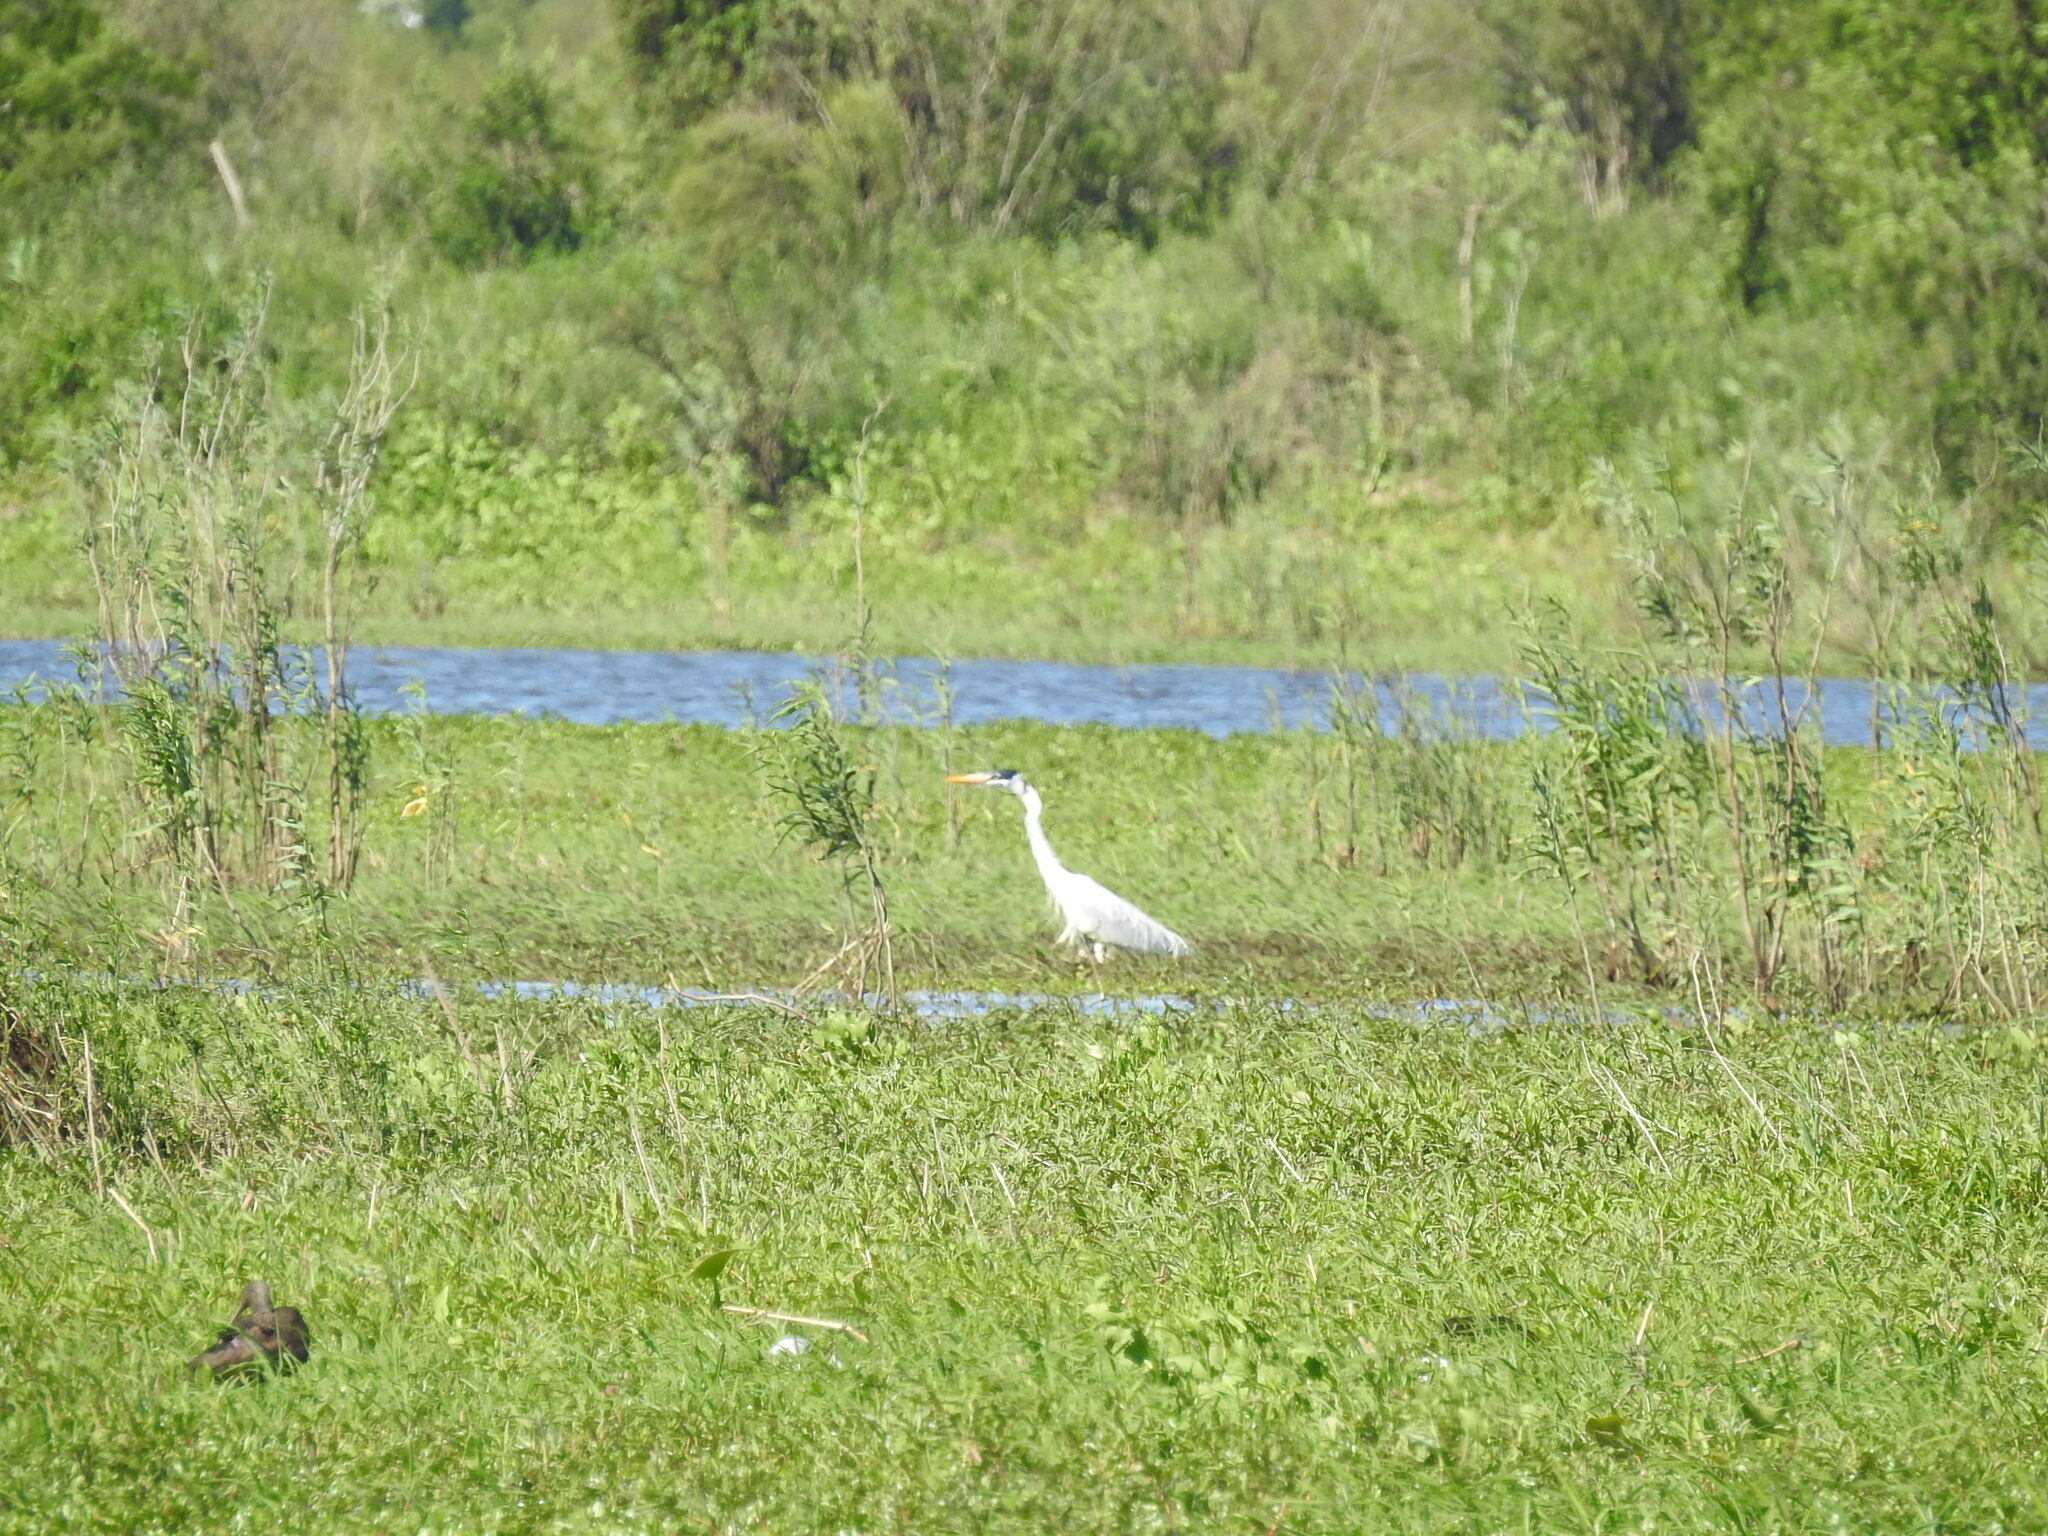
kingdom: Animalia
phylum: Chordata
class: Aves
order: Pelecaniformes
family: Ardeidae
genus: Ardea
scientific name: Ardea cocoi
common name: Cocoi heron
